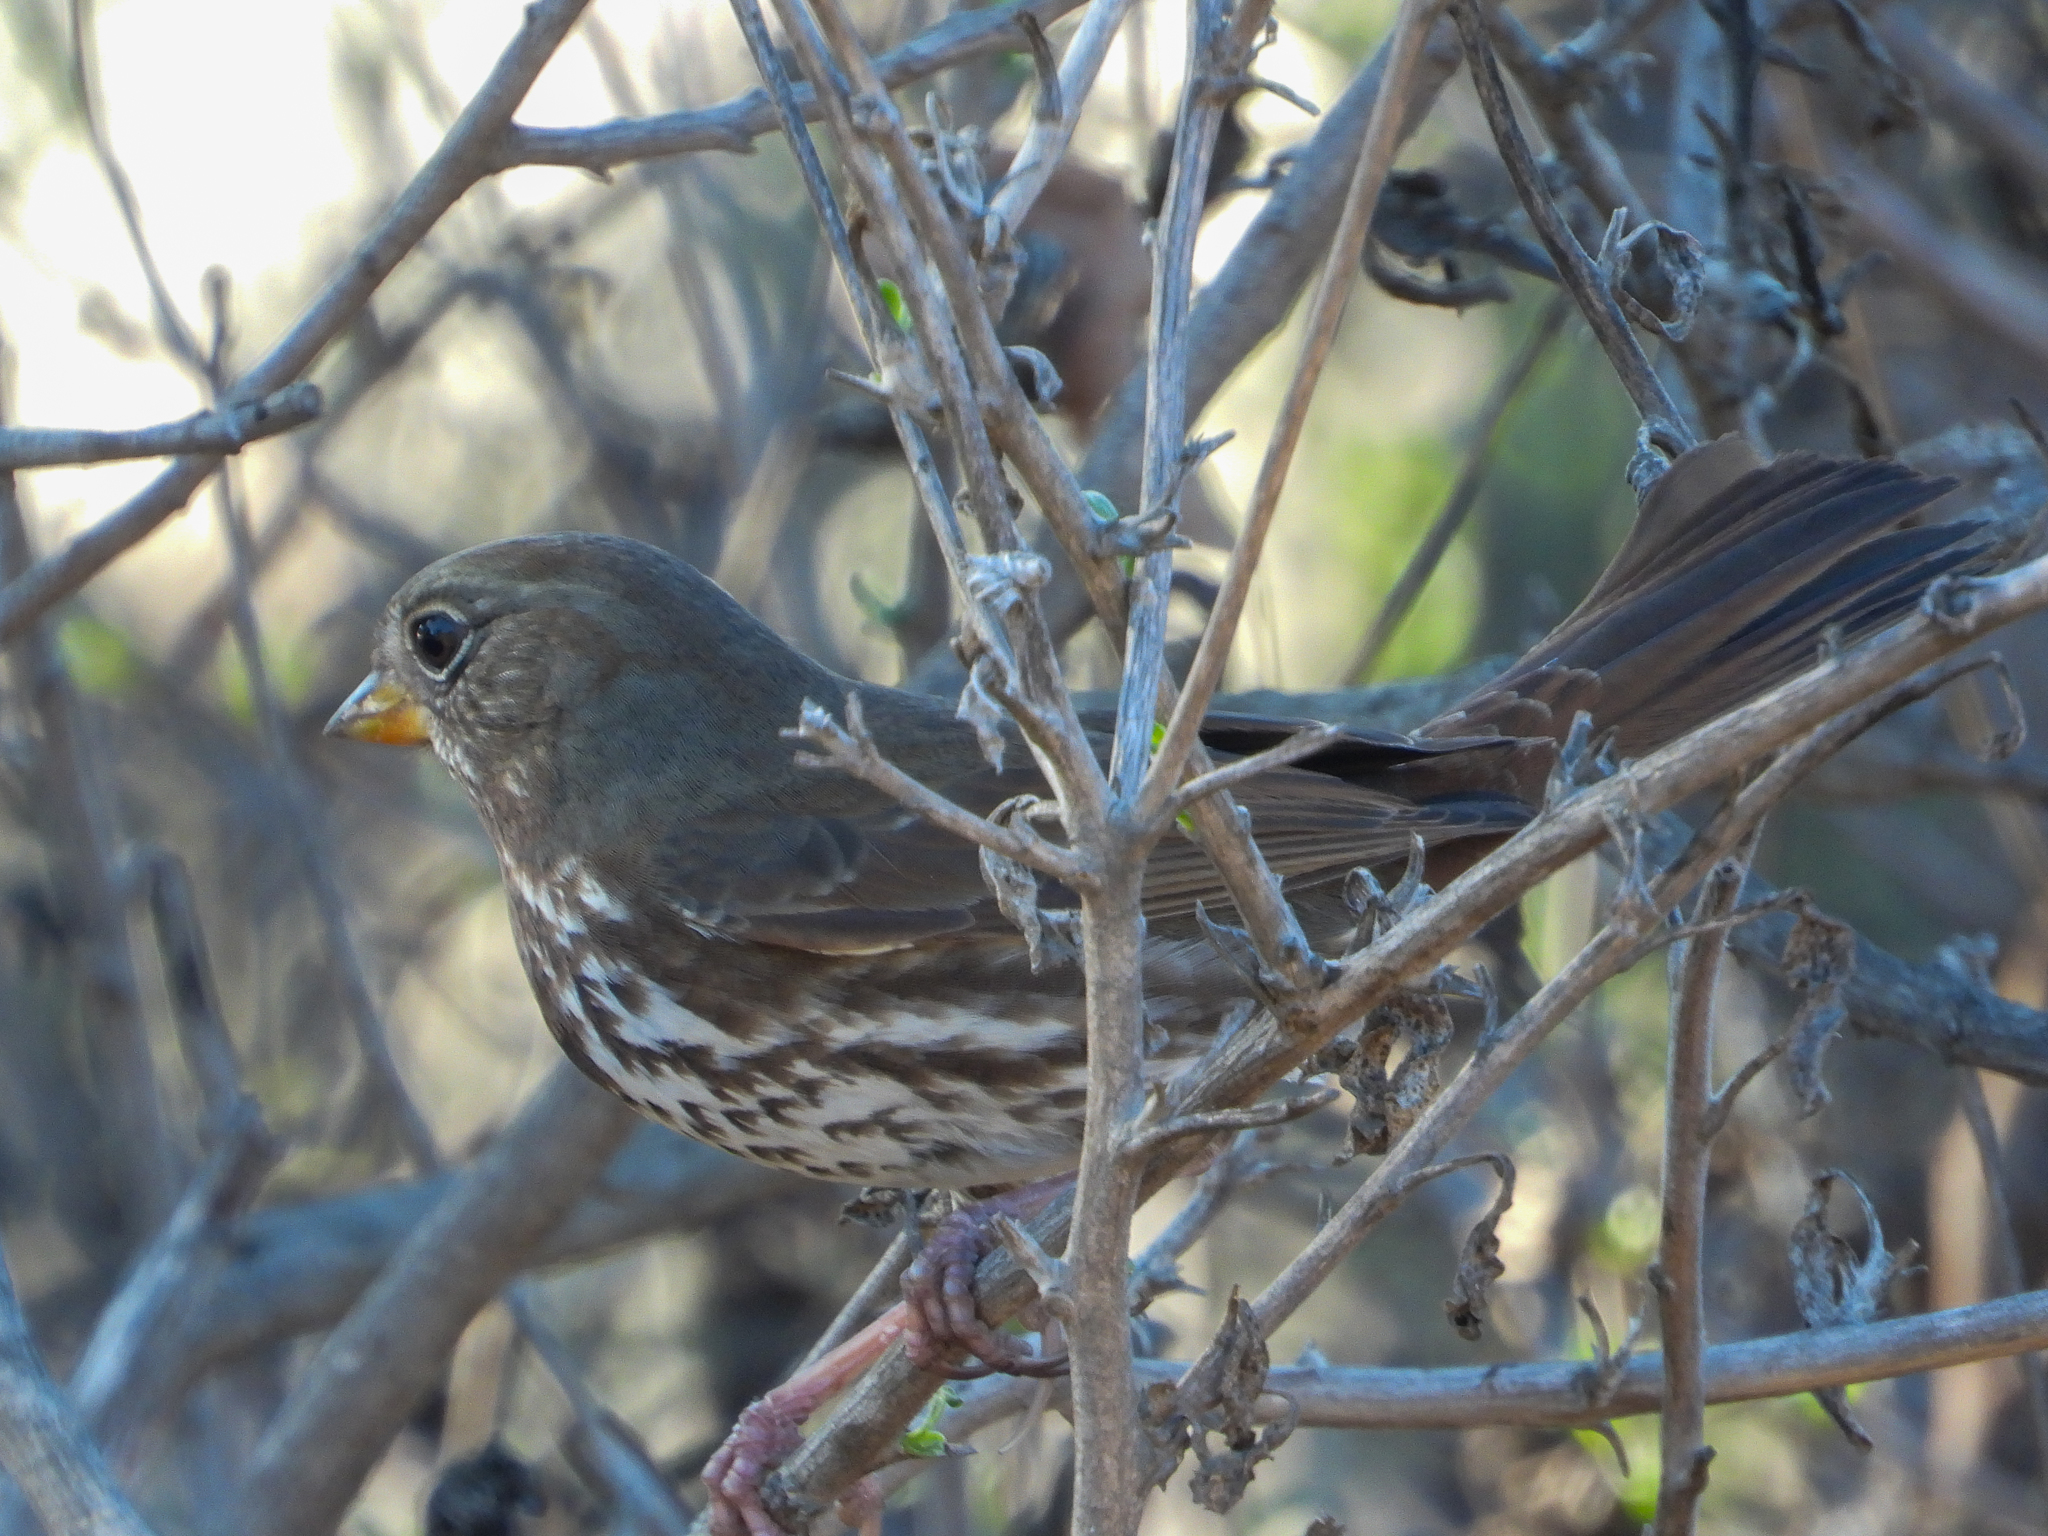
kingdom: Animalia
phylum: Chordata
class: Aves
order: Passeriformes
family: Passerellidae
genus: Passerella
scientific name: Passerella iliaca
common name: Fox sparrow
